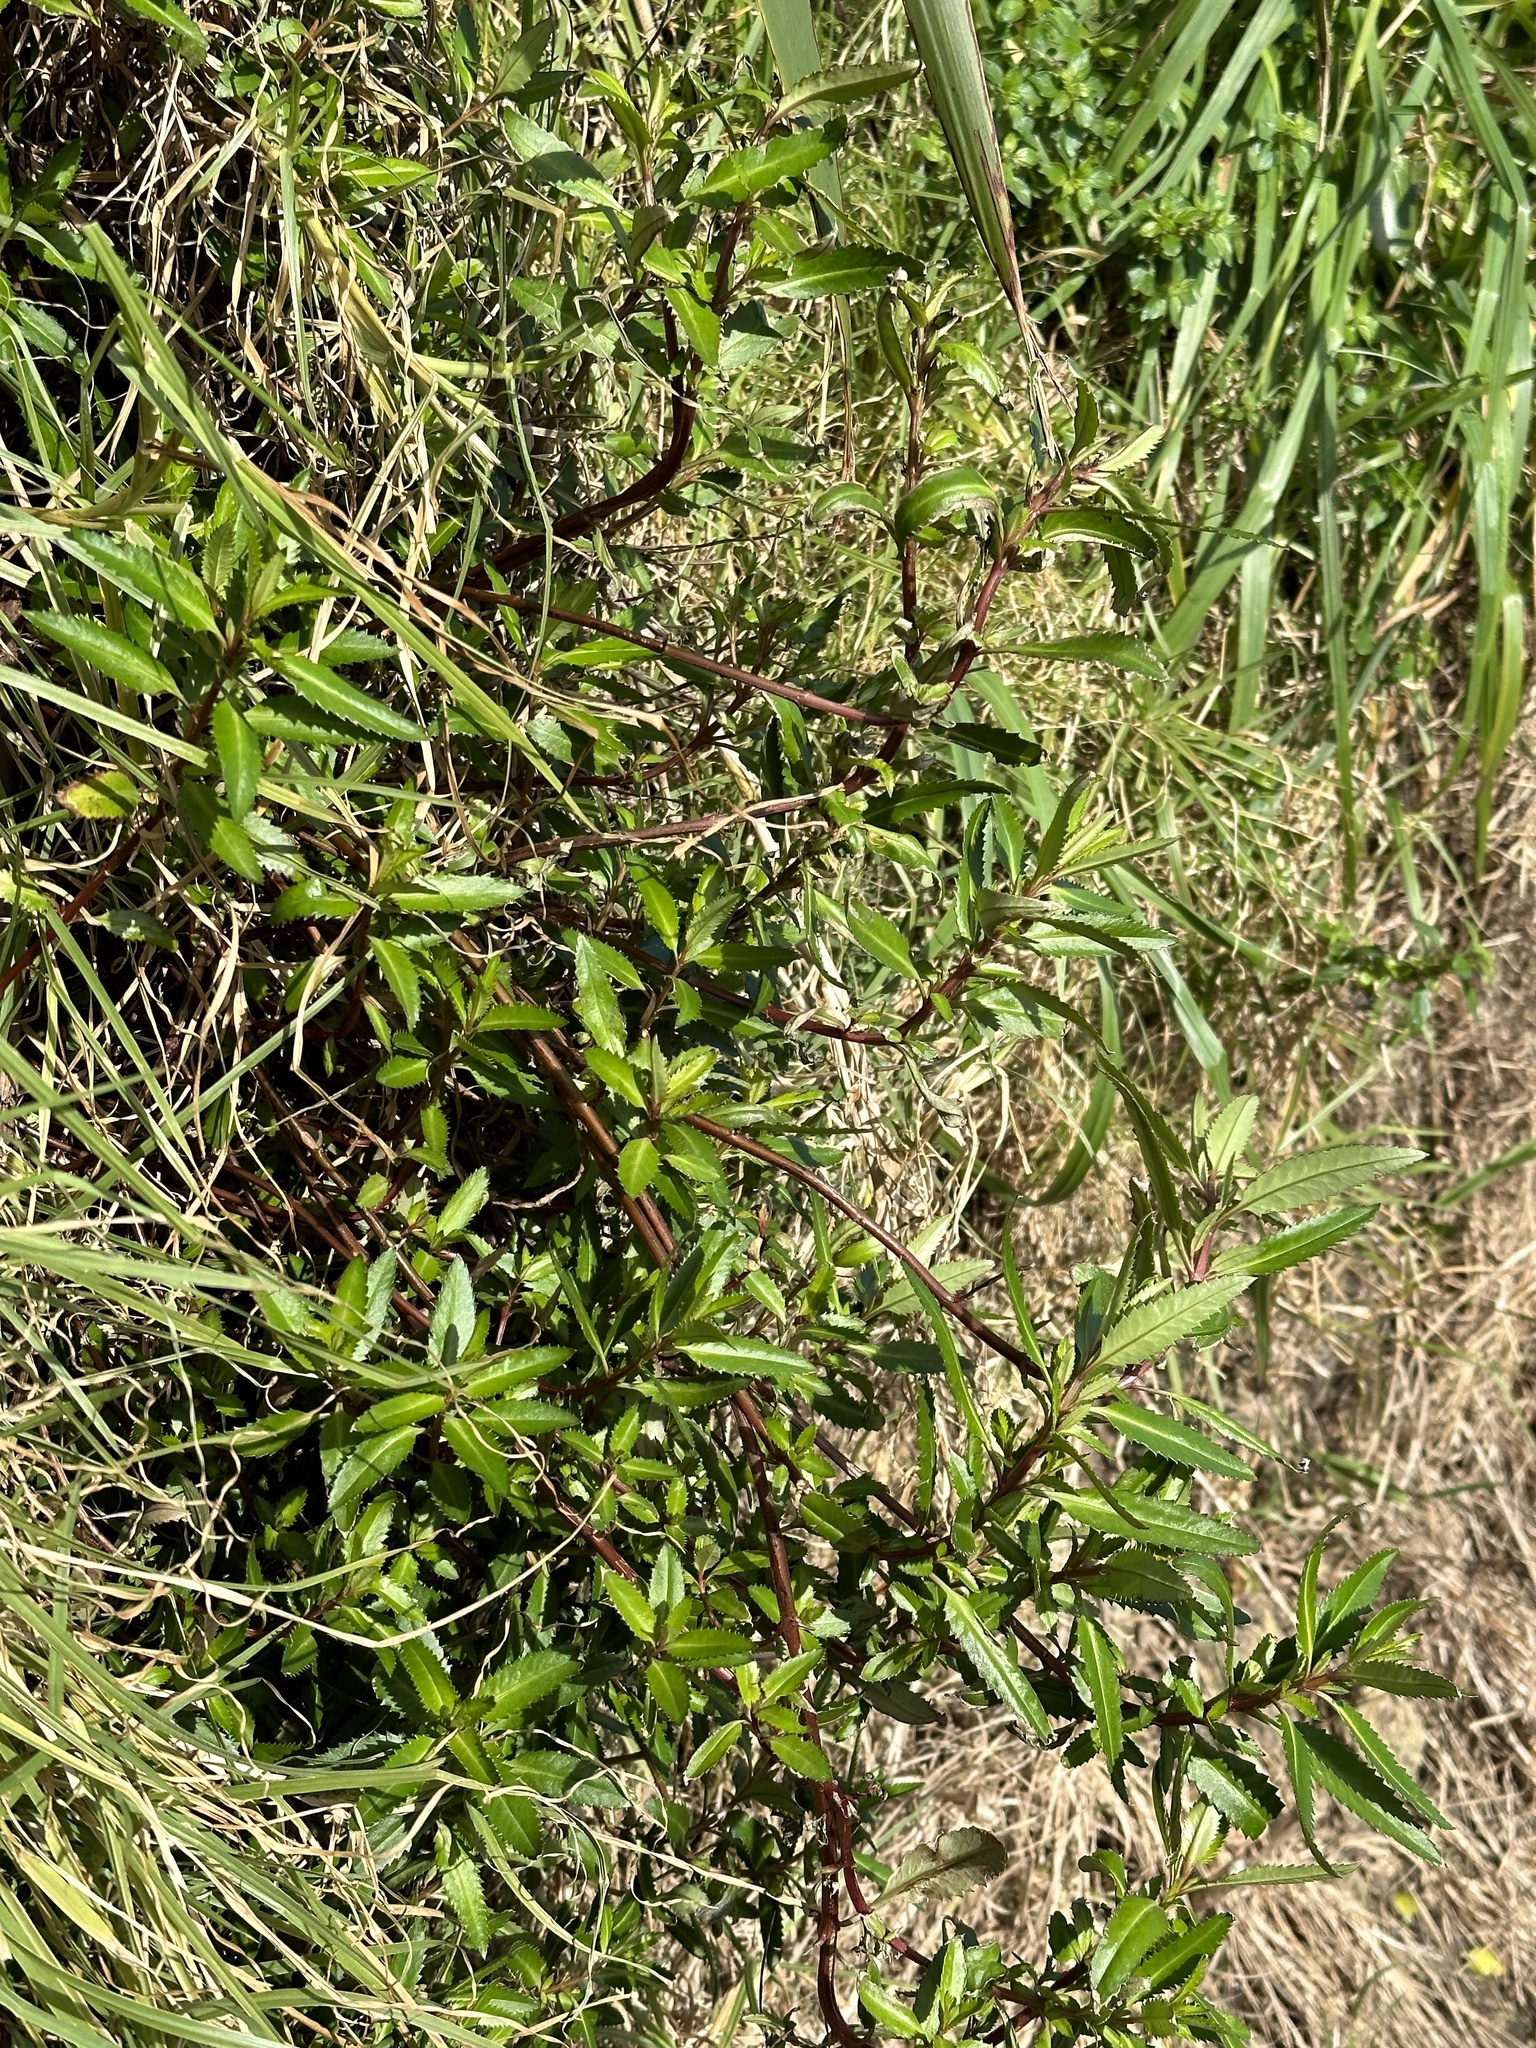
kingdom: Plantae
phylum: Tracheophyta
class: Magnoliopsida
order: Saxifragales
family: Haloragaceae
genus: Haloragis
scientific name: Haloragis erecta
